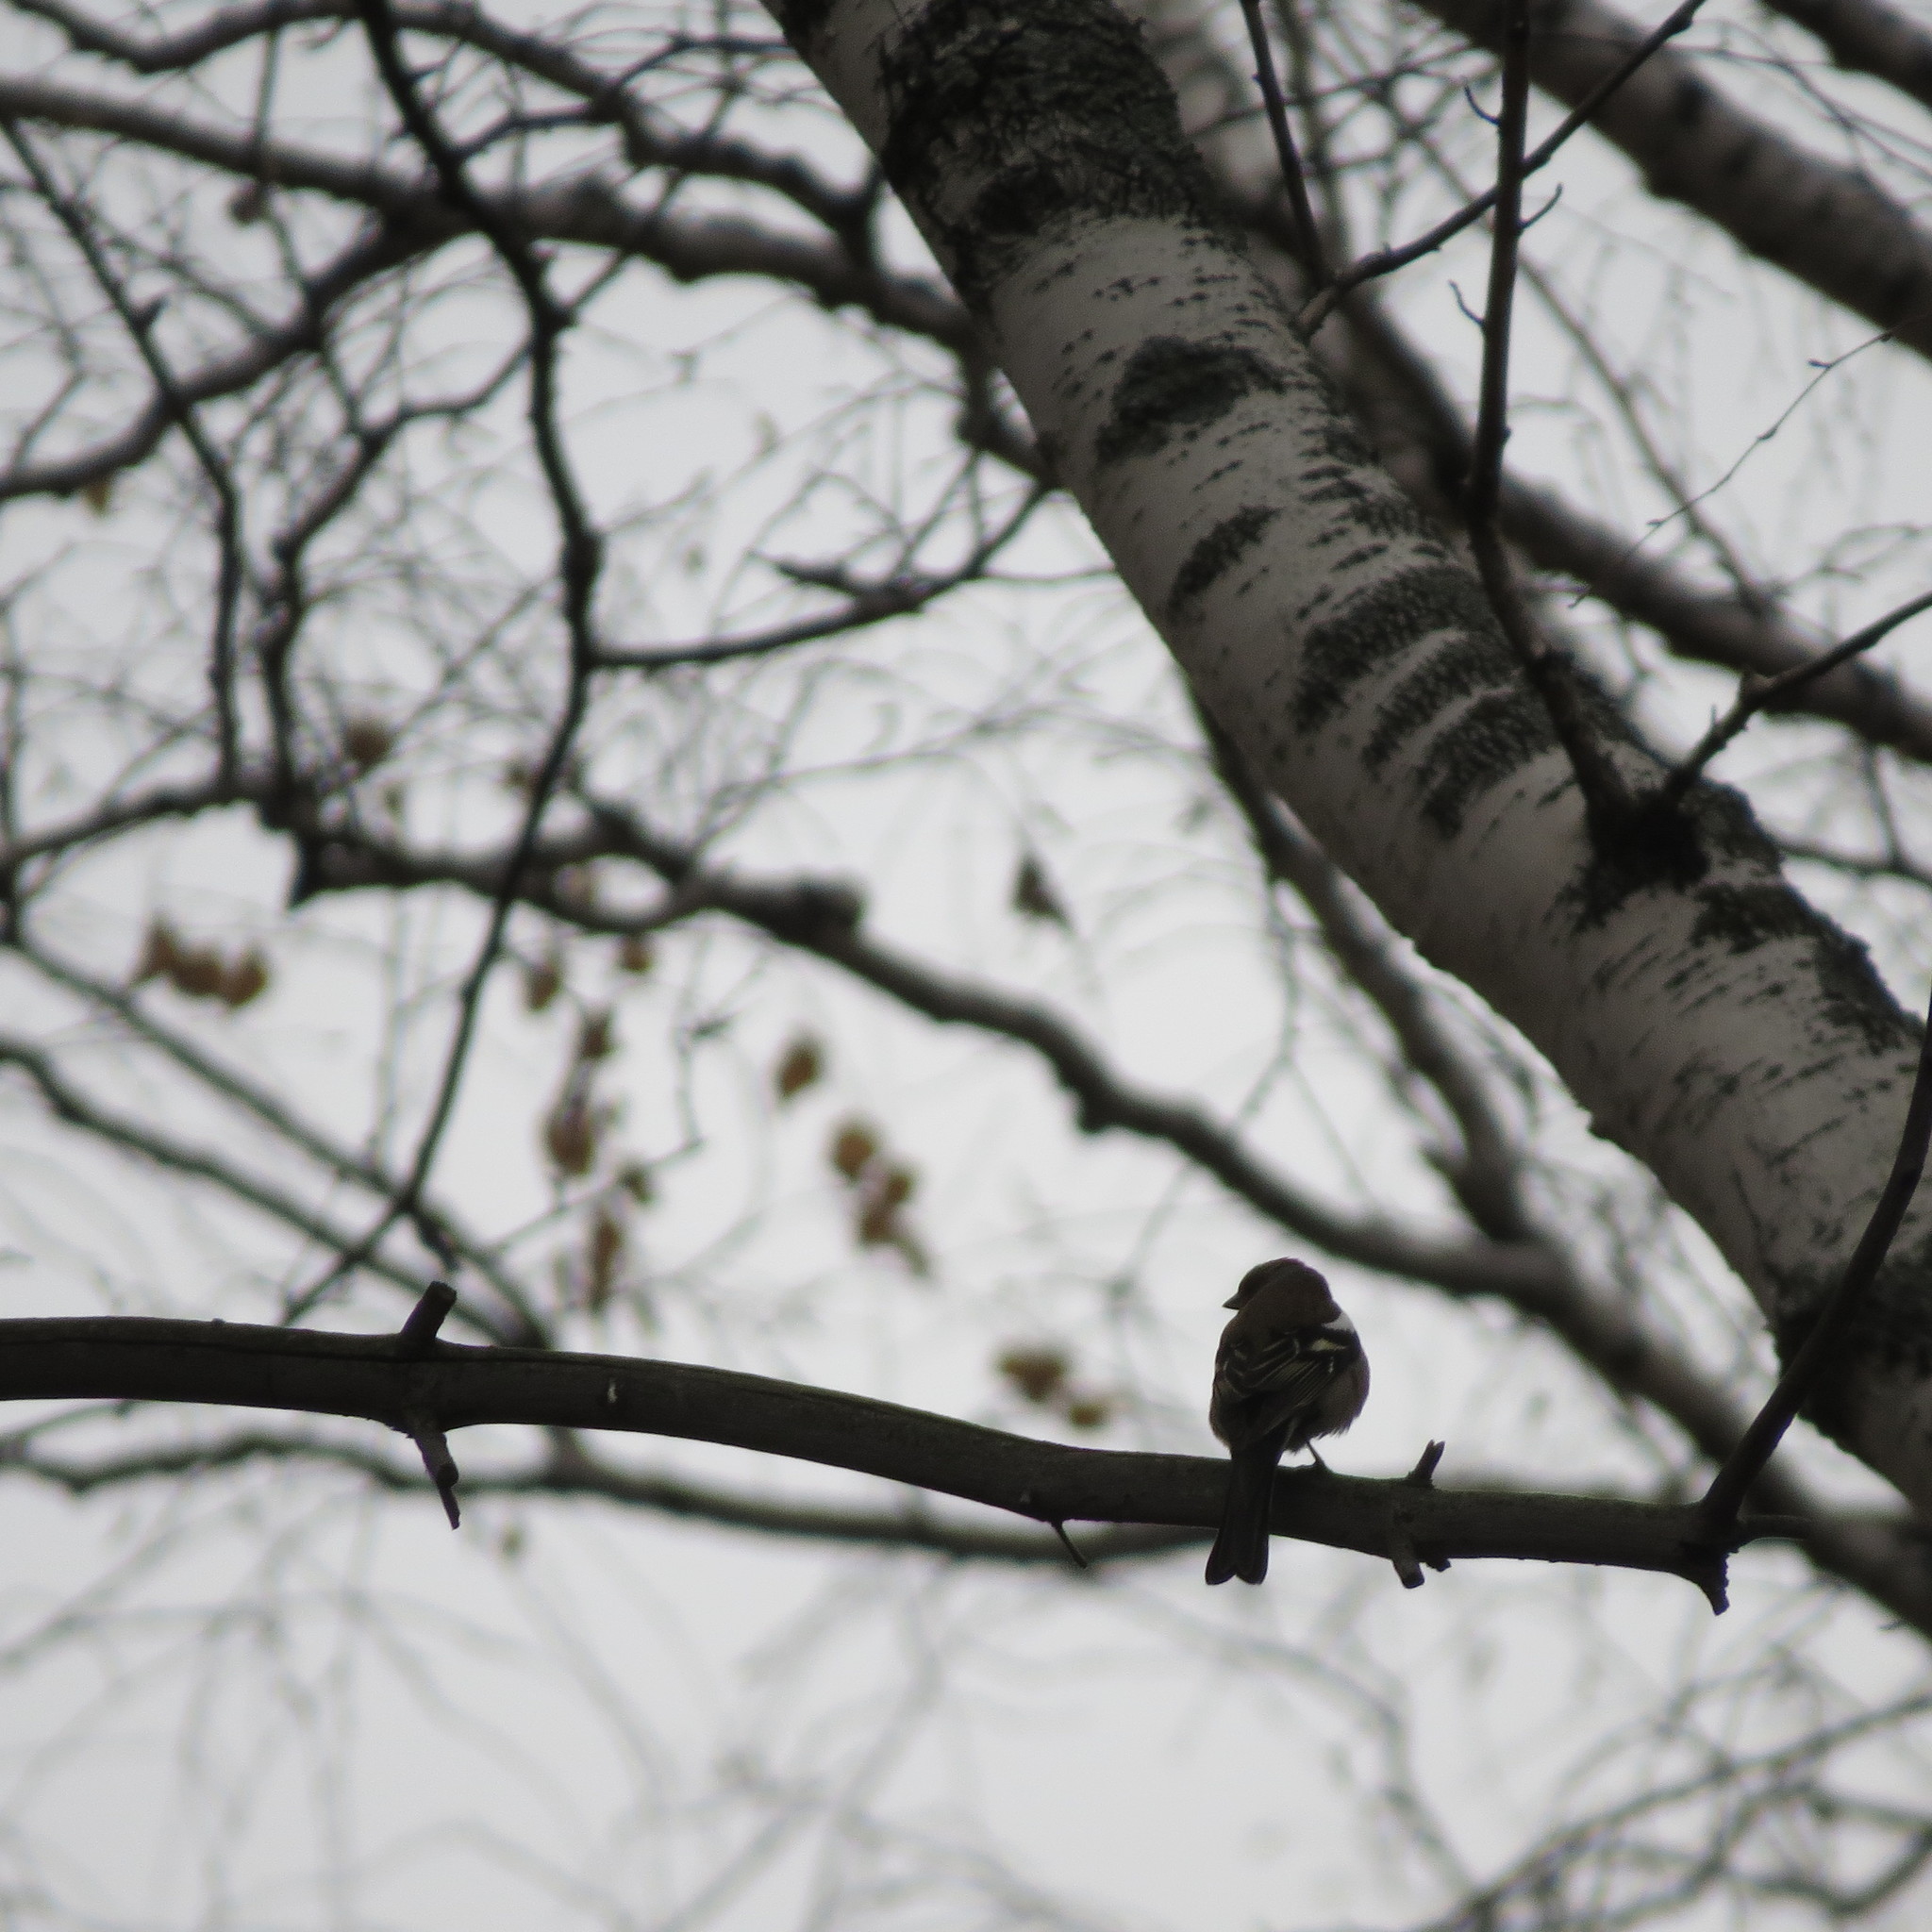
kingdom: Animalia
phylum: Chordata
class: Aves
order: Passeriformes
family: Fringillidae
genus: Fringilla
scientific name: Fringilla coelebs
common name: Common chaffinch
